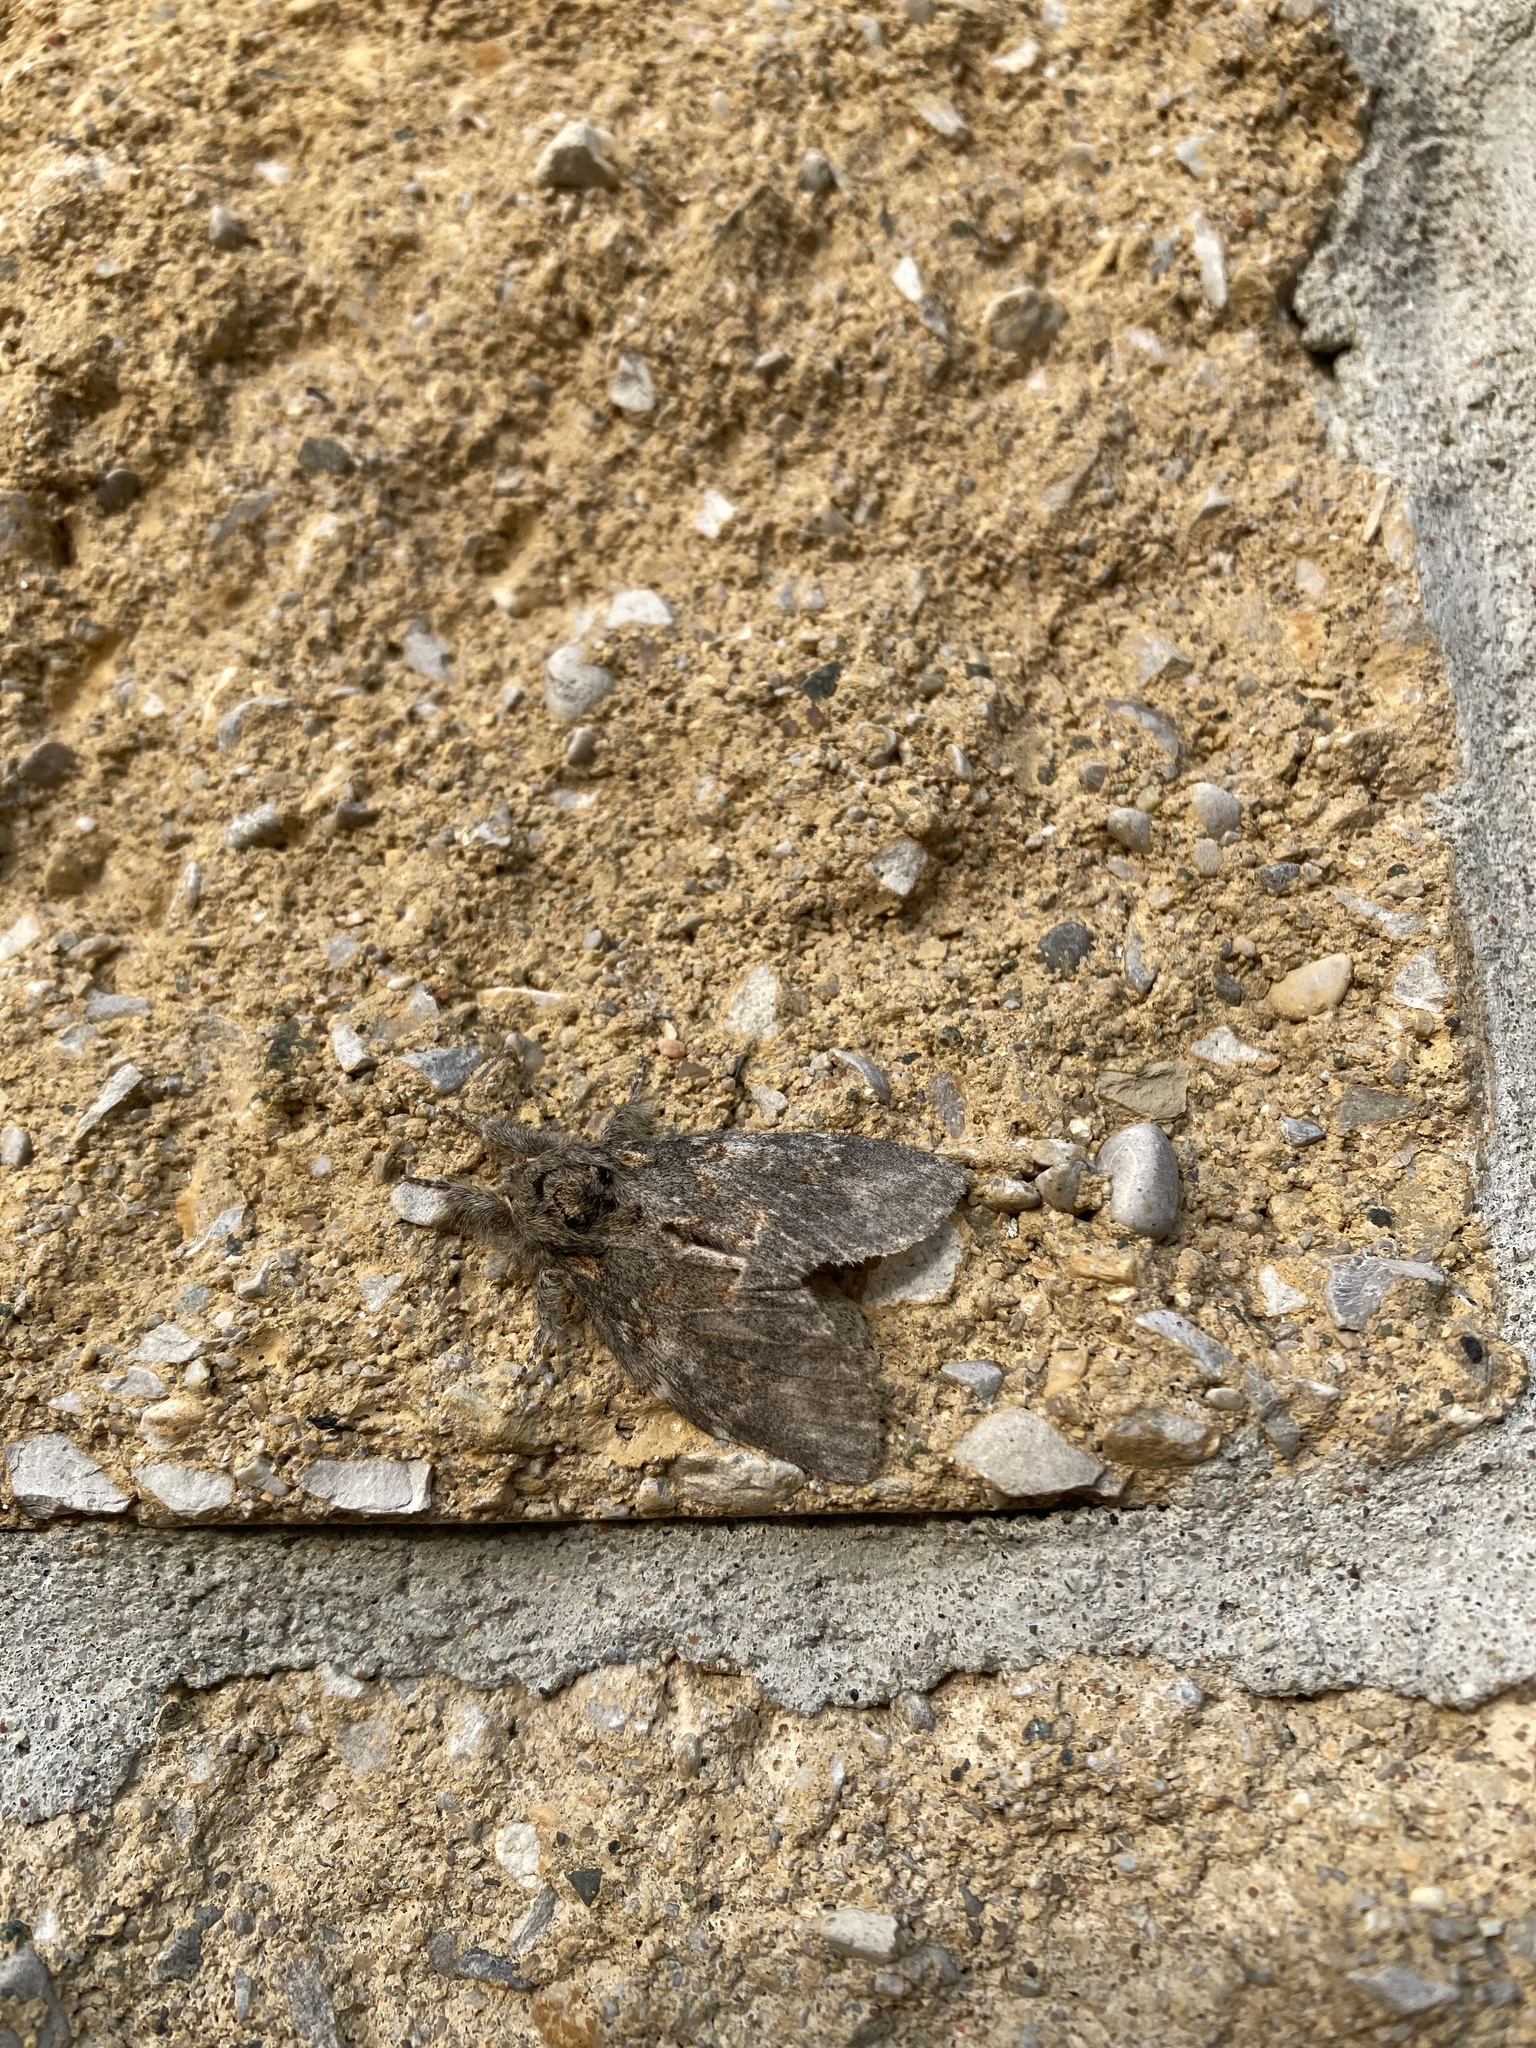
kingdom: Animalia
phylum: Arthropoda
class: Insecta
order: Lepidoptera
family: Notodontidae
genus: Peridea
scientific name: Peridea angulosa
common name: Angulose prominent
